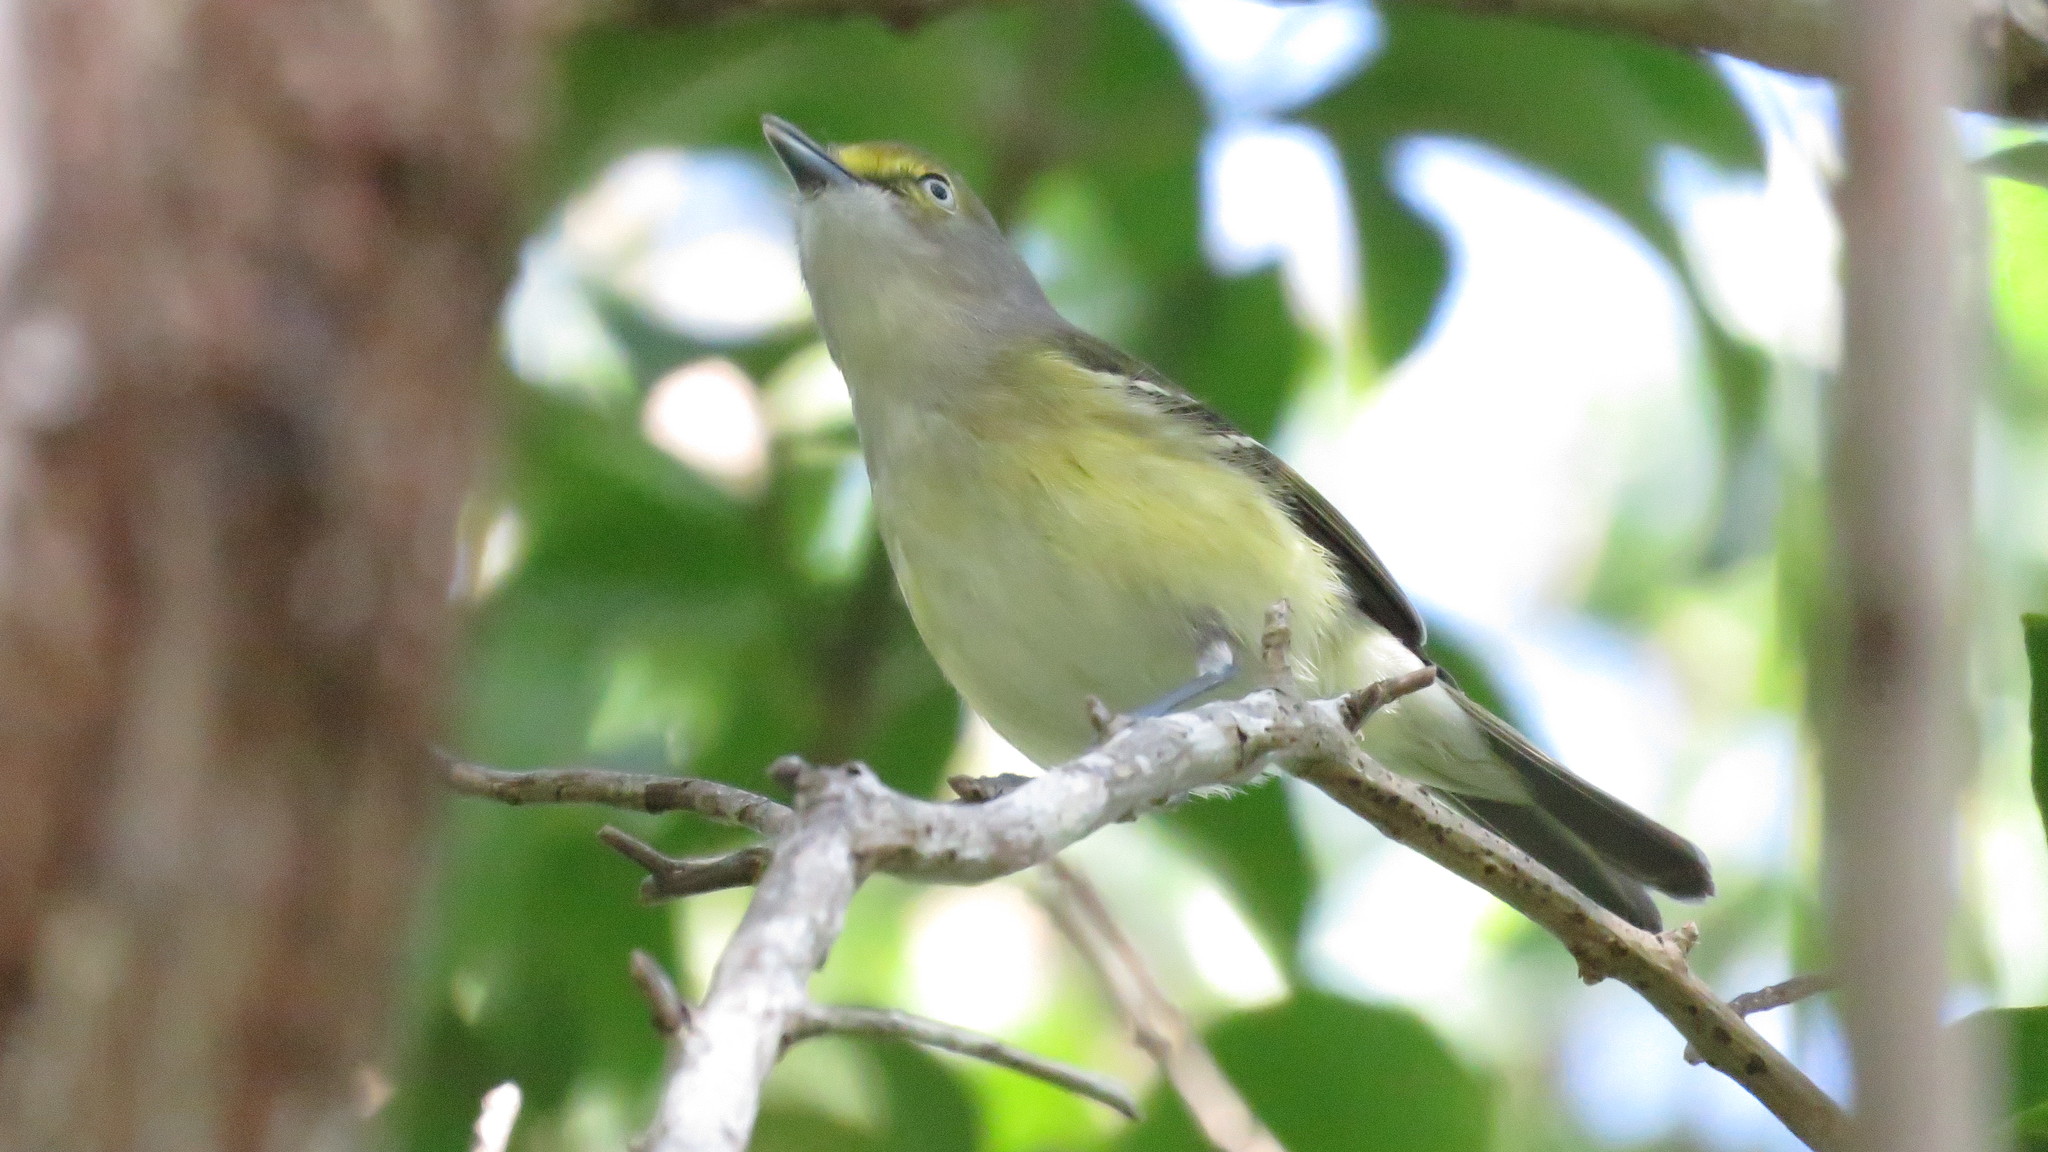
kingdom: Animalia
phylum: Chordata
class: Aves
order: Passeriformes
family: Vireonidae
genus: Vireo
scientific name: Vireo griseus
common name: White-eyed vireo
